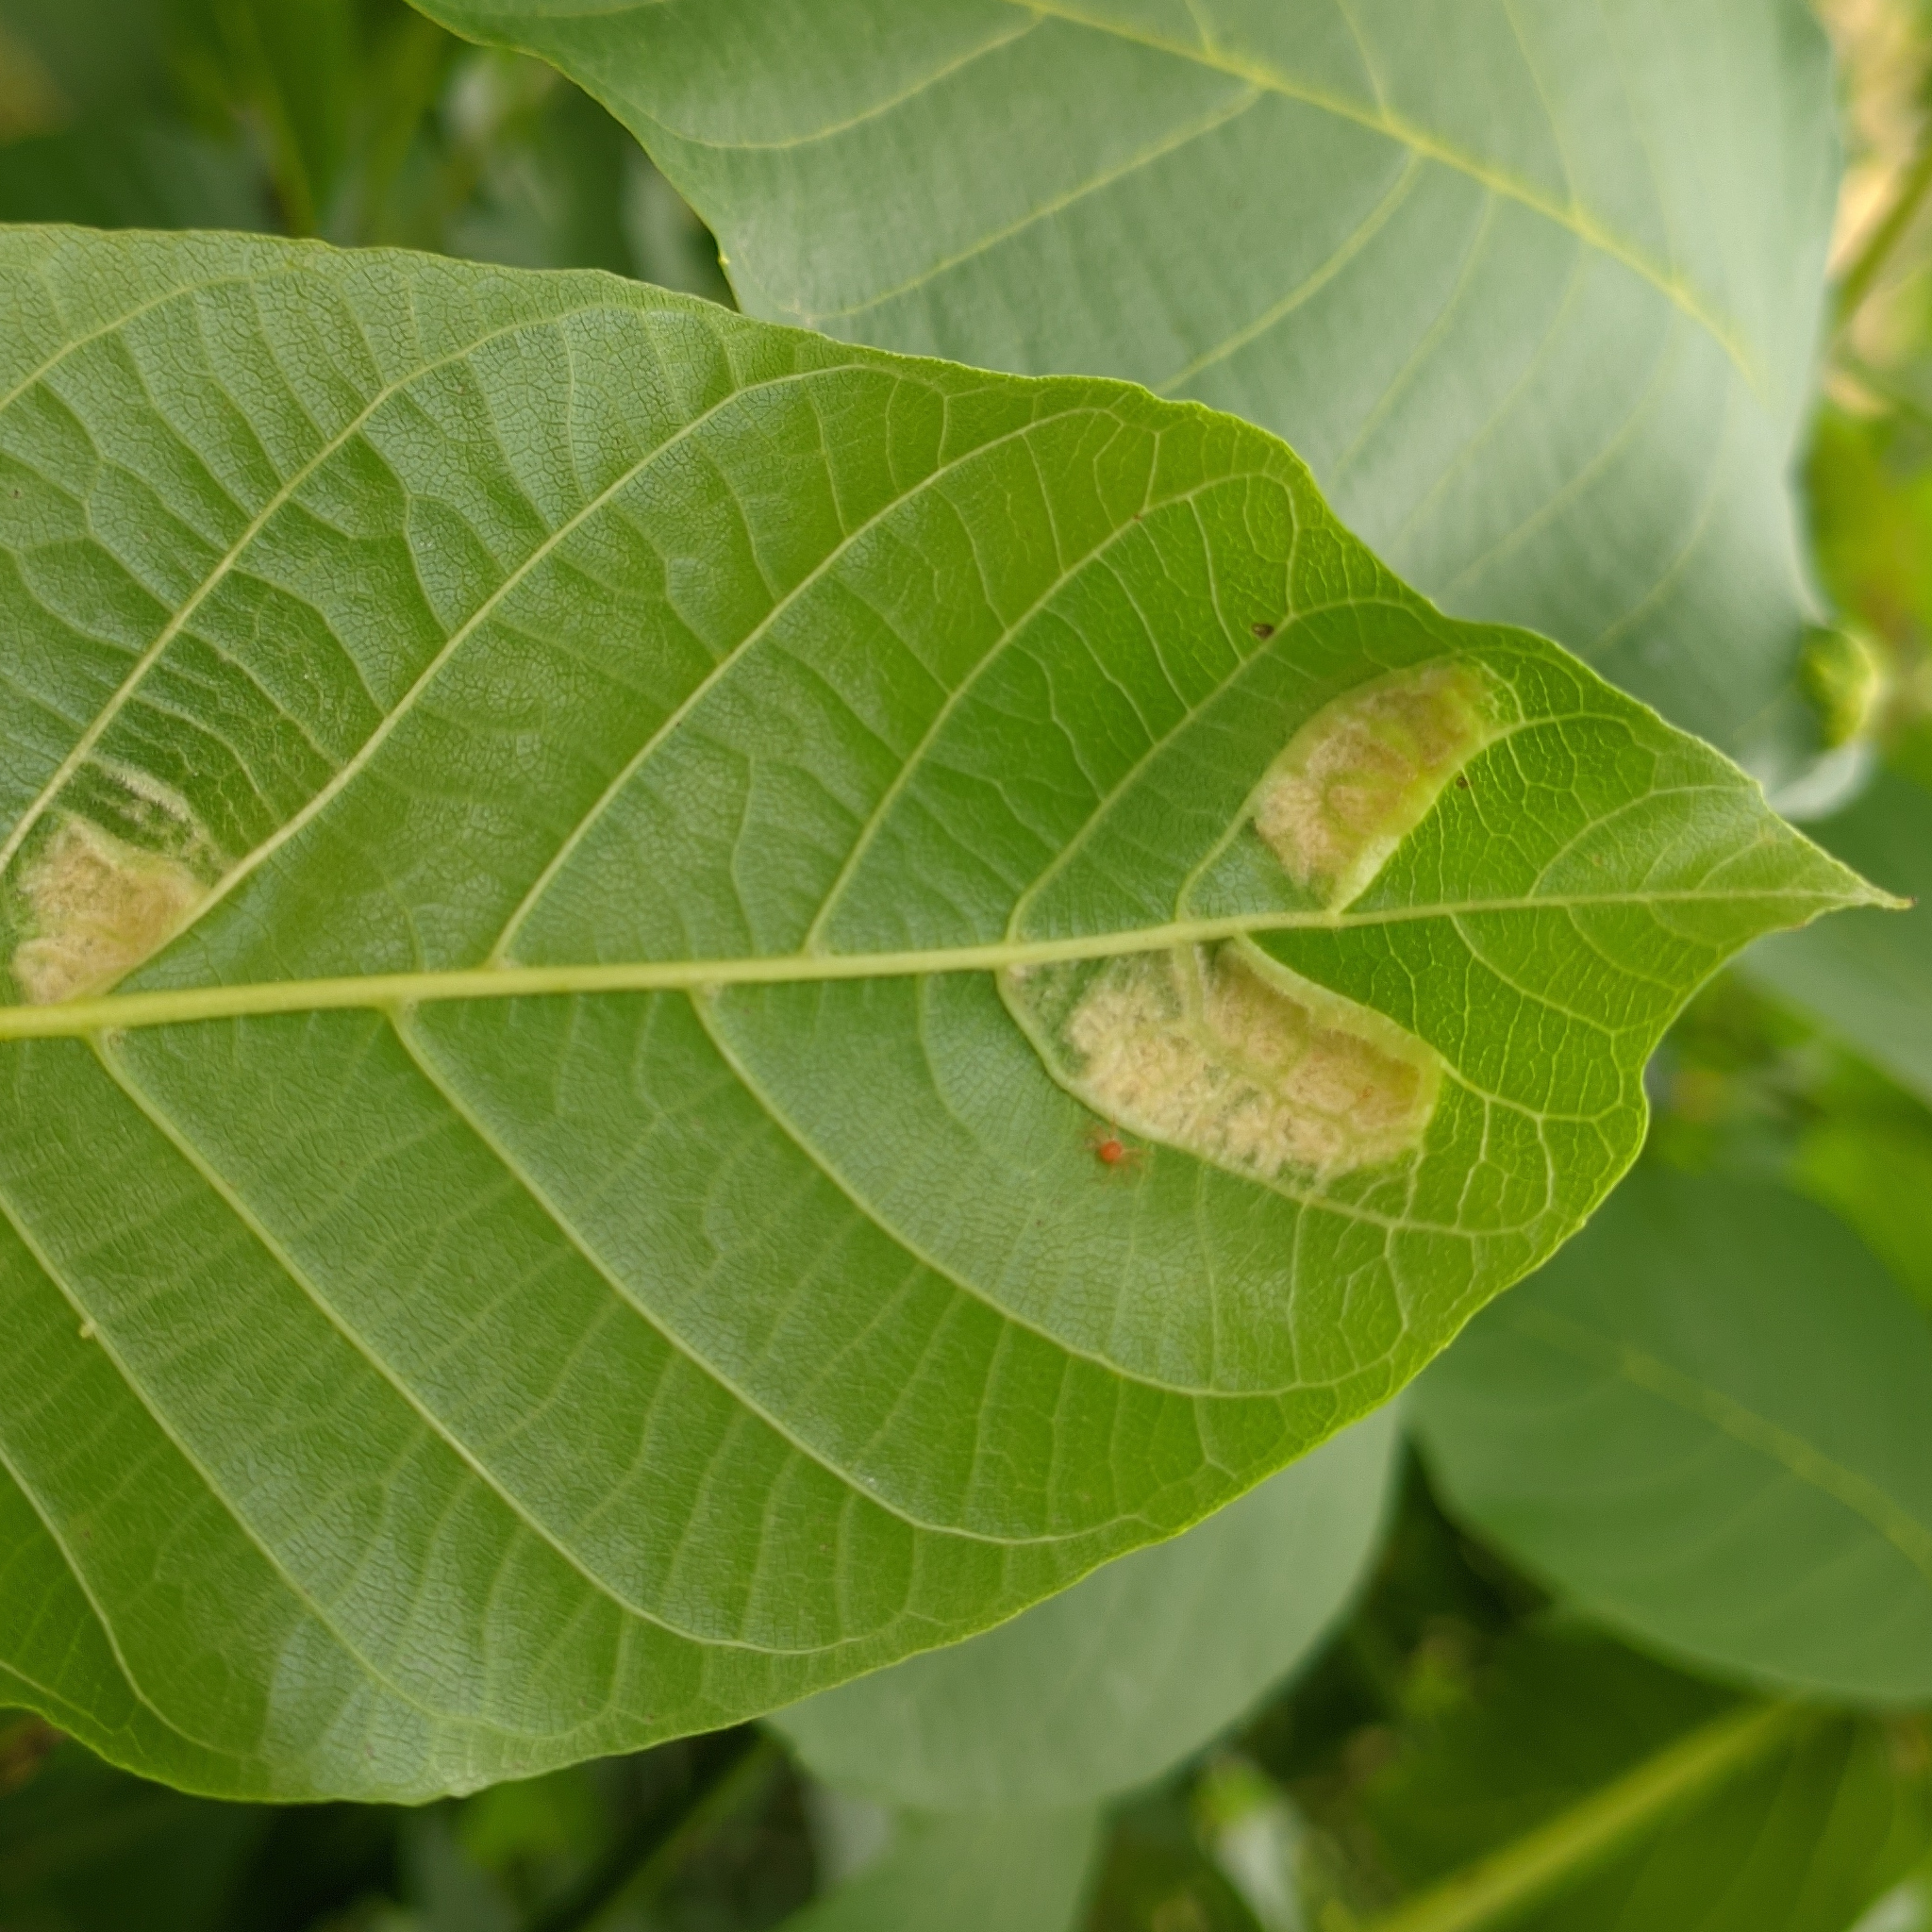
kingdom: Animalia
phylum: Arthropoda
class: Arachnida
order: Trombidiformes
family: Eriophyidae
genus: Aceria
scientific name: Aceria erinea
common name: Persian walnut erineum mite
